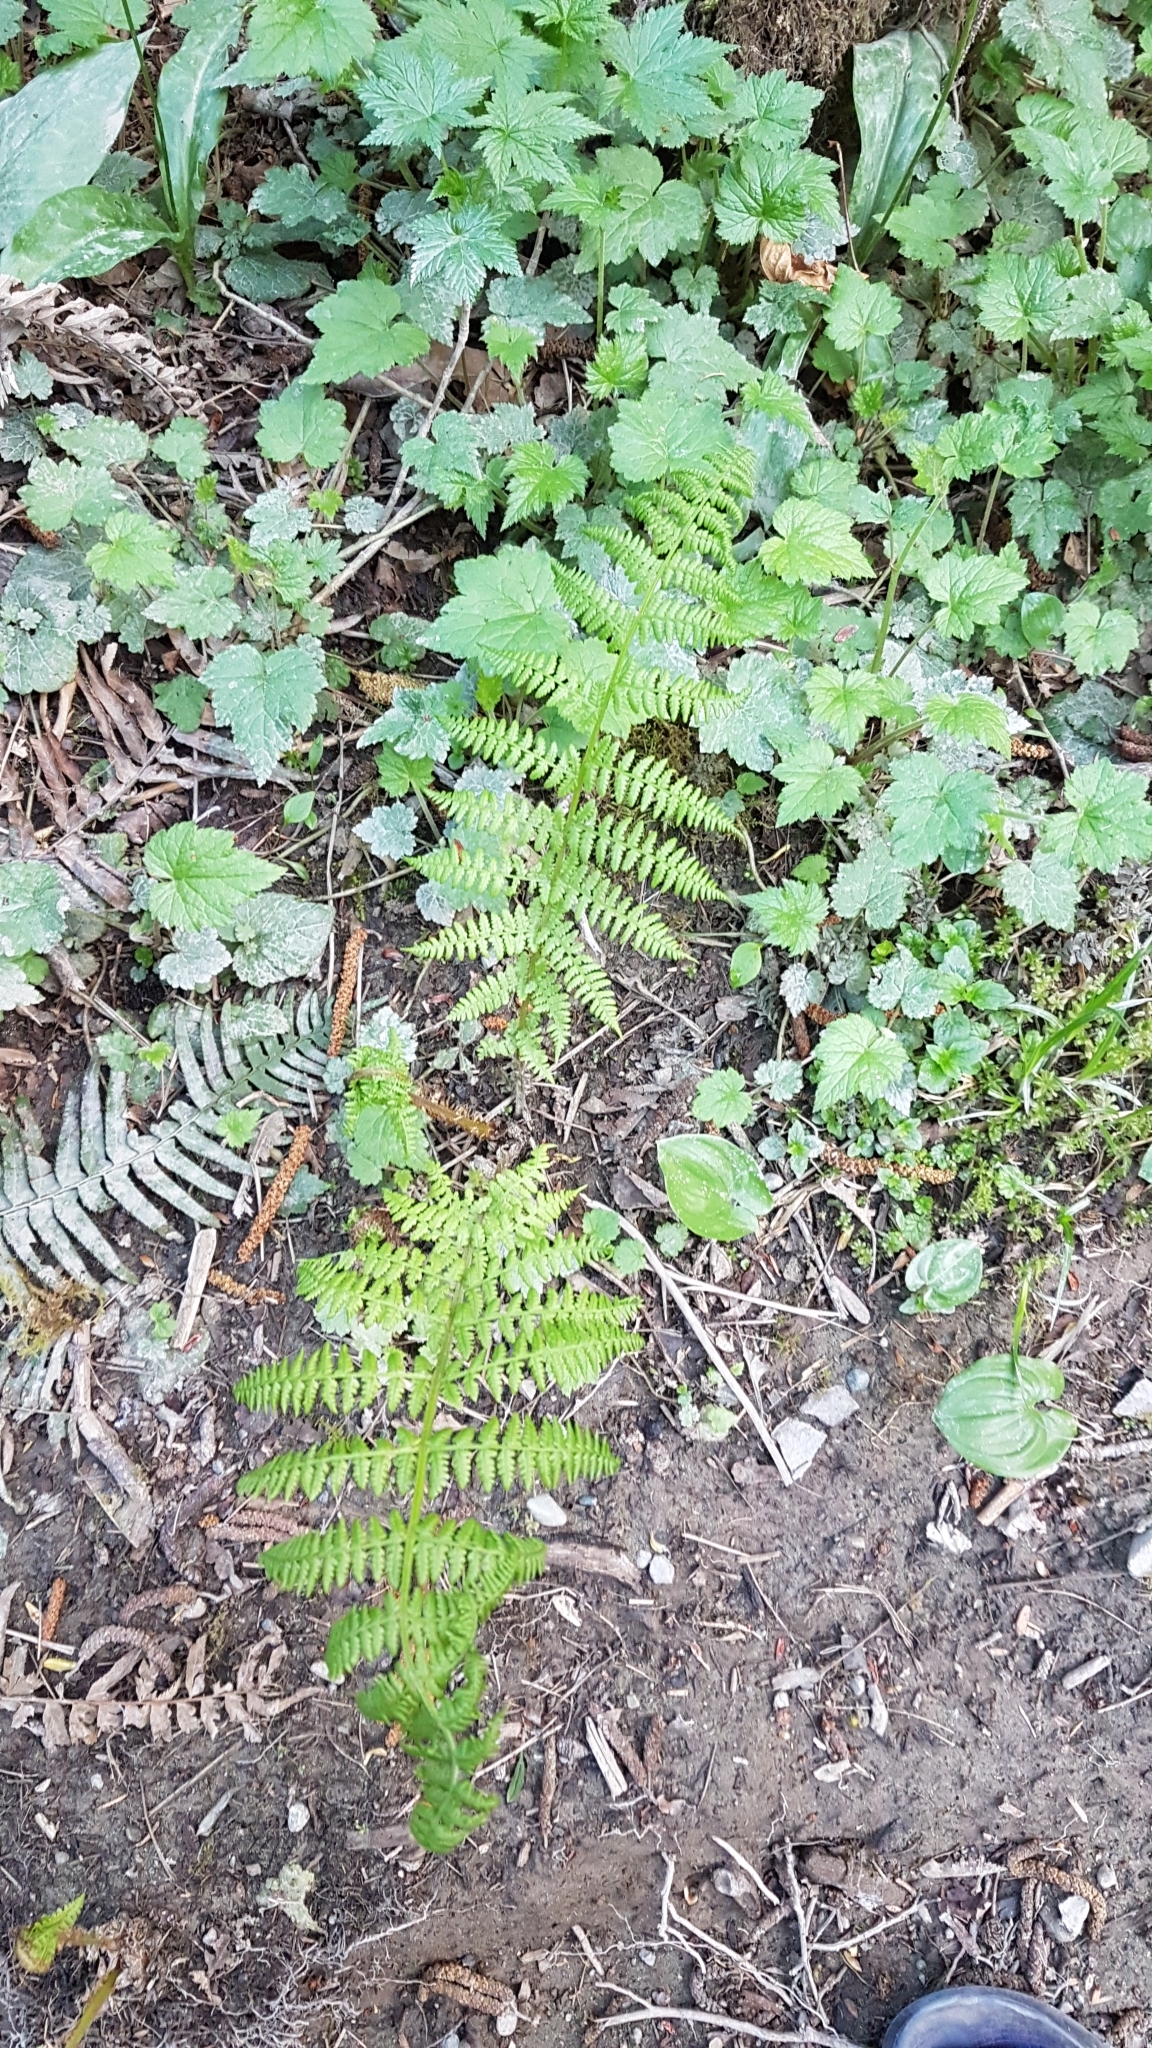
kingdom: Plantae
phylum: Tracheophyta
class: Polypodiopsida
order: Polypodiales
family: Athyriaceae
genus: Athyrium
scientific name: Athyrium filix-femina
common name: Lady fern
